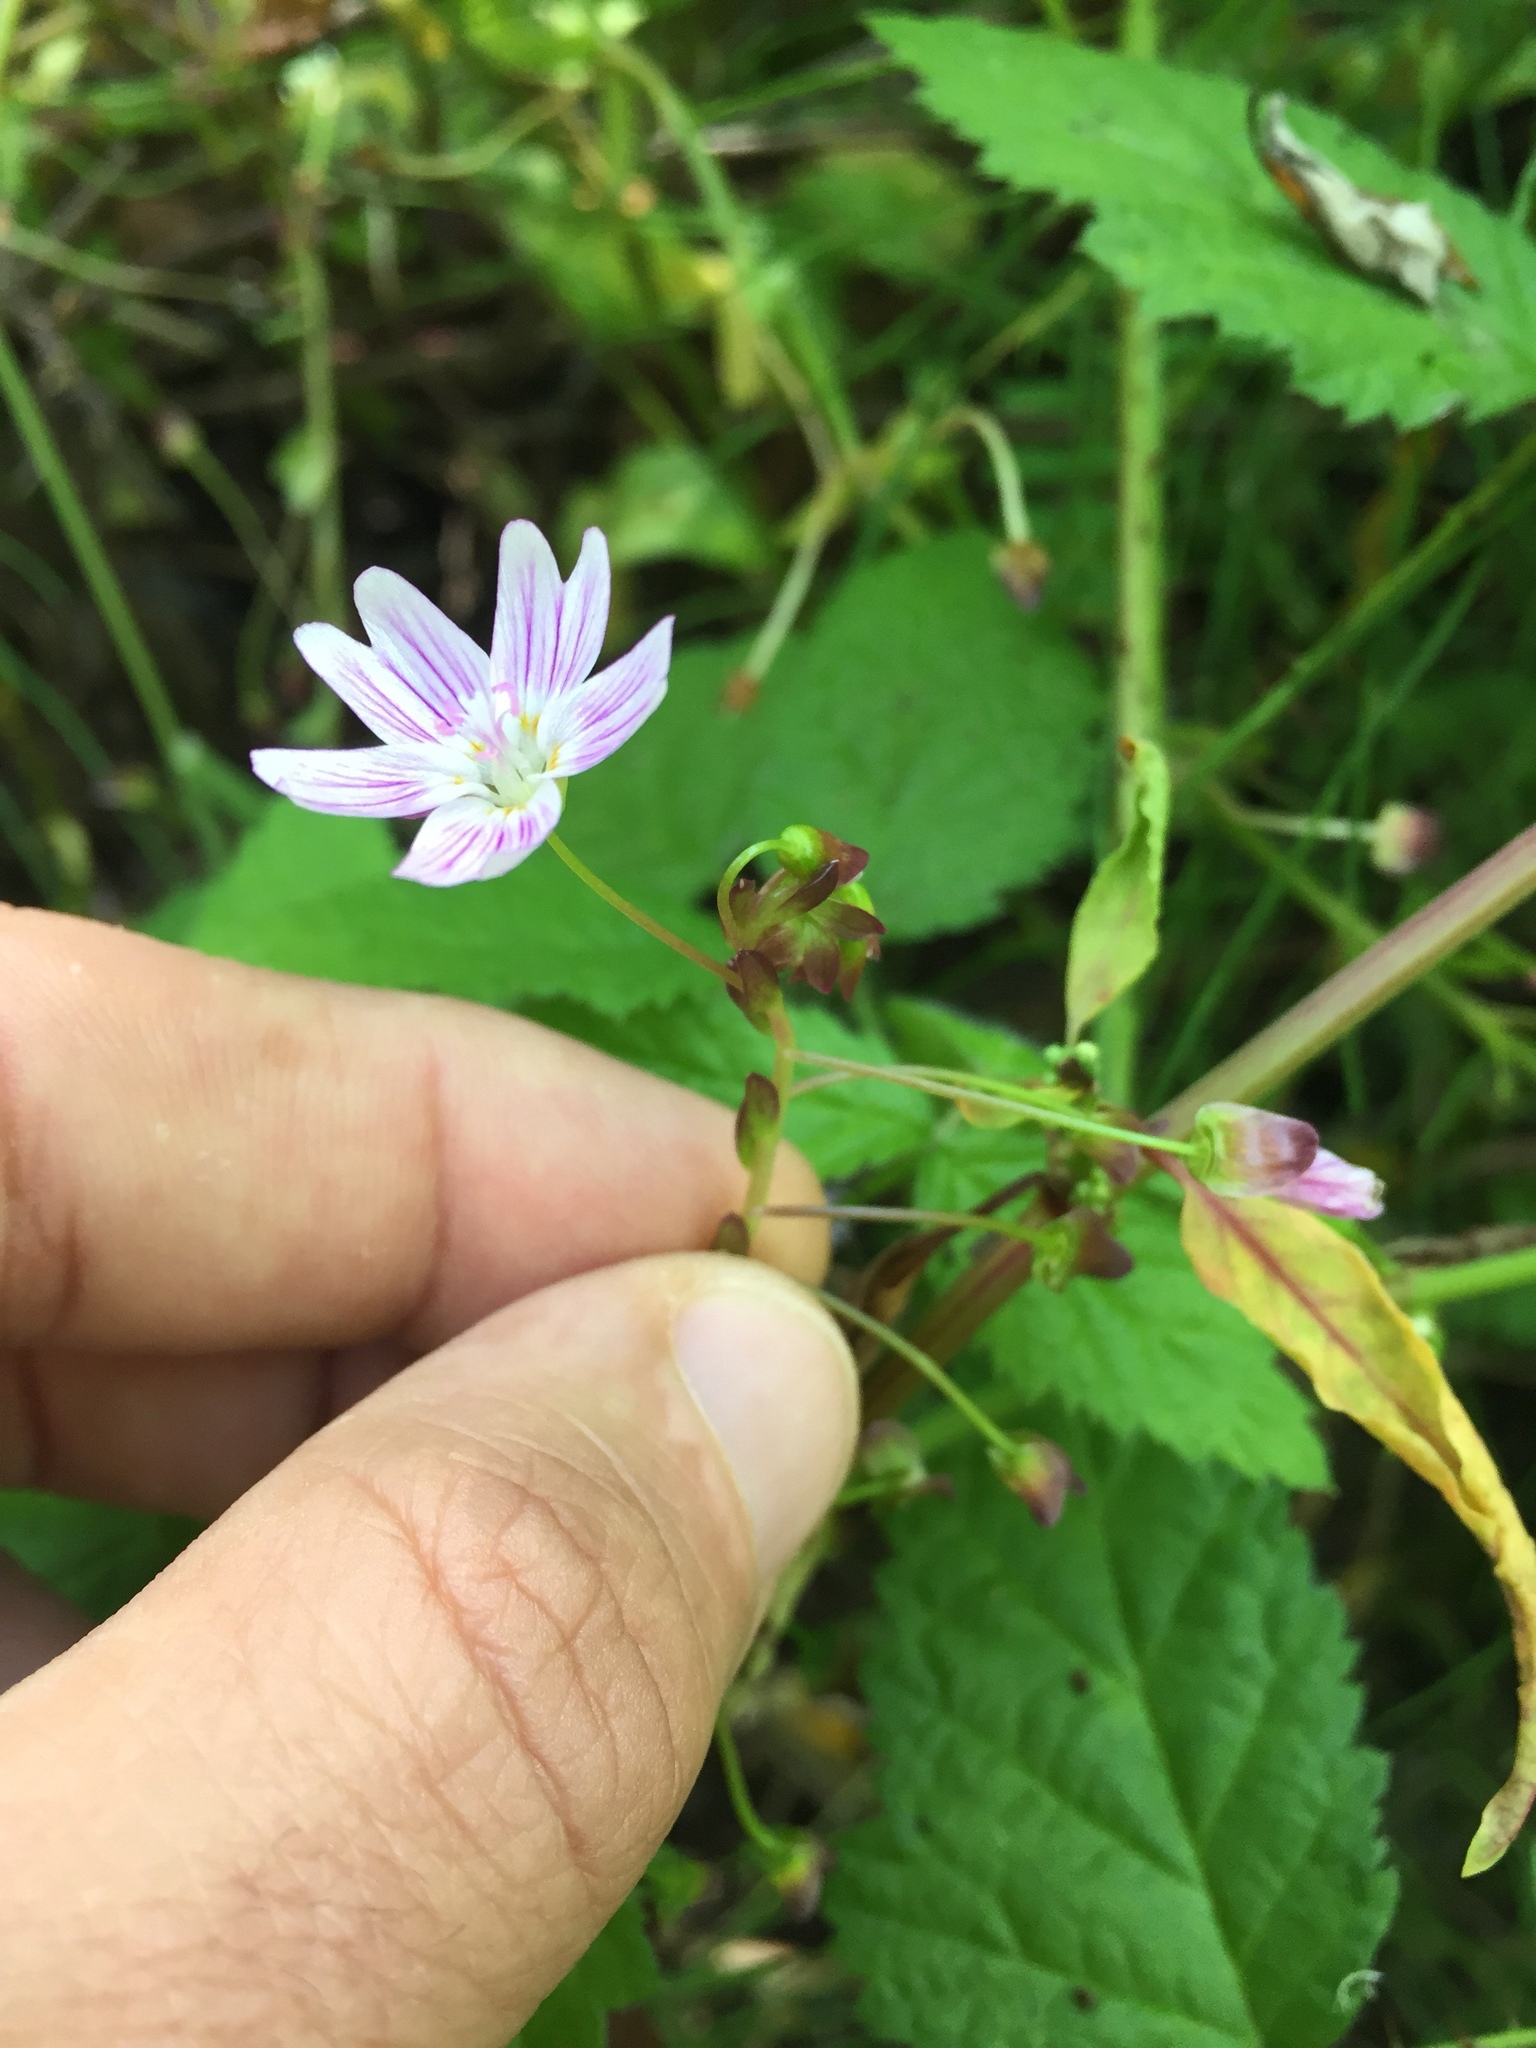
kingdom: Plantae
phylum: Tracheophyta
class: Magnoliopsida
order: Caryophyllales
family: Montiaceae
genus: Claytonia
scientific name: Claytonia sibirica
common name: Pink purslane
